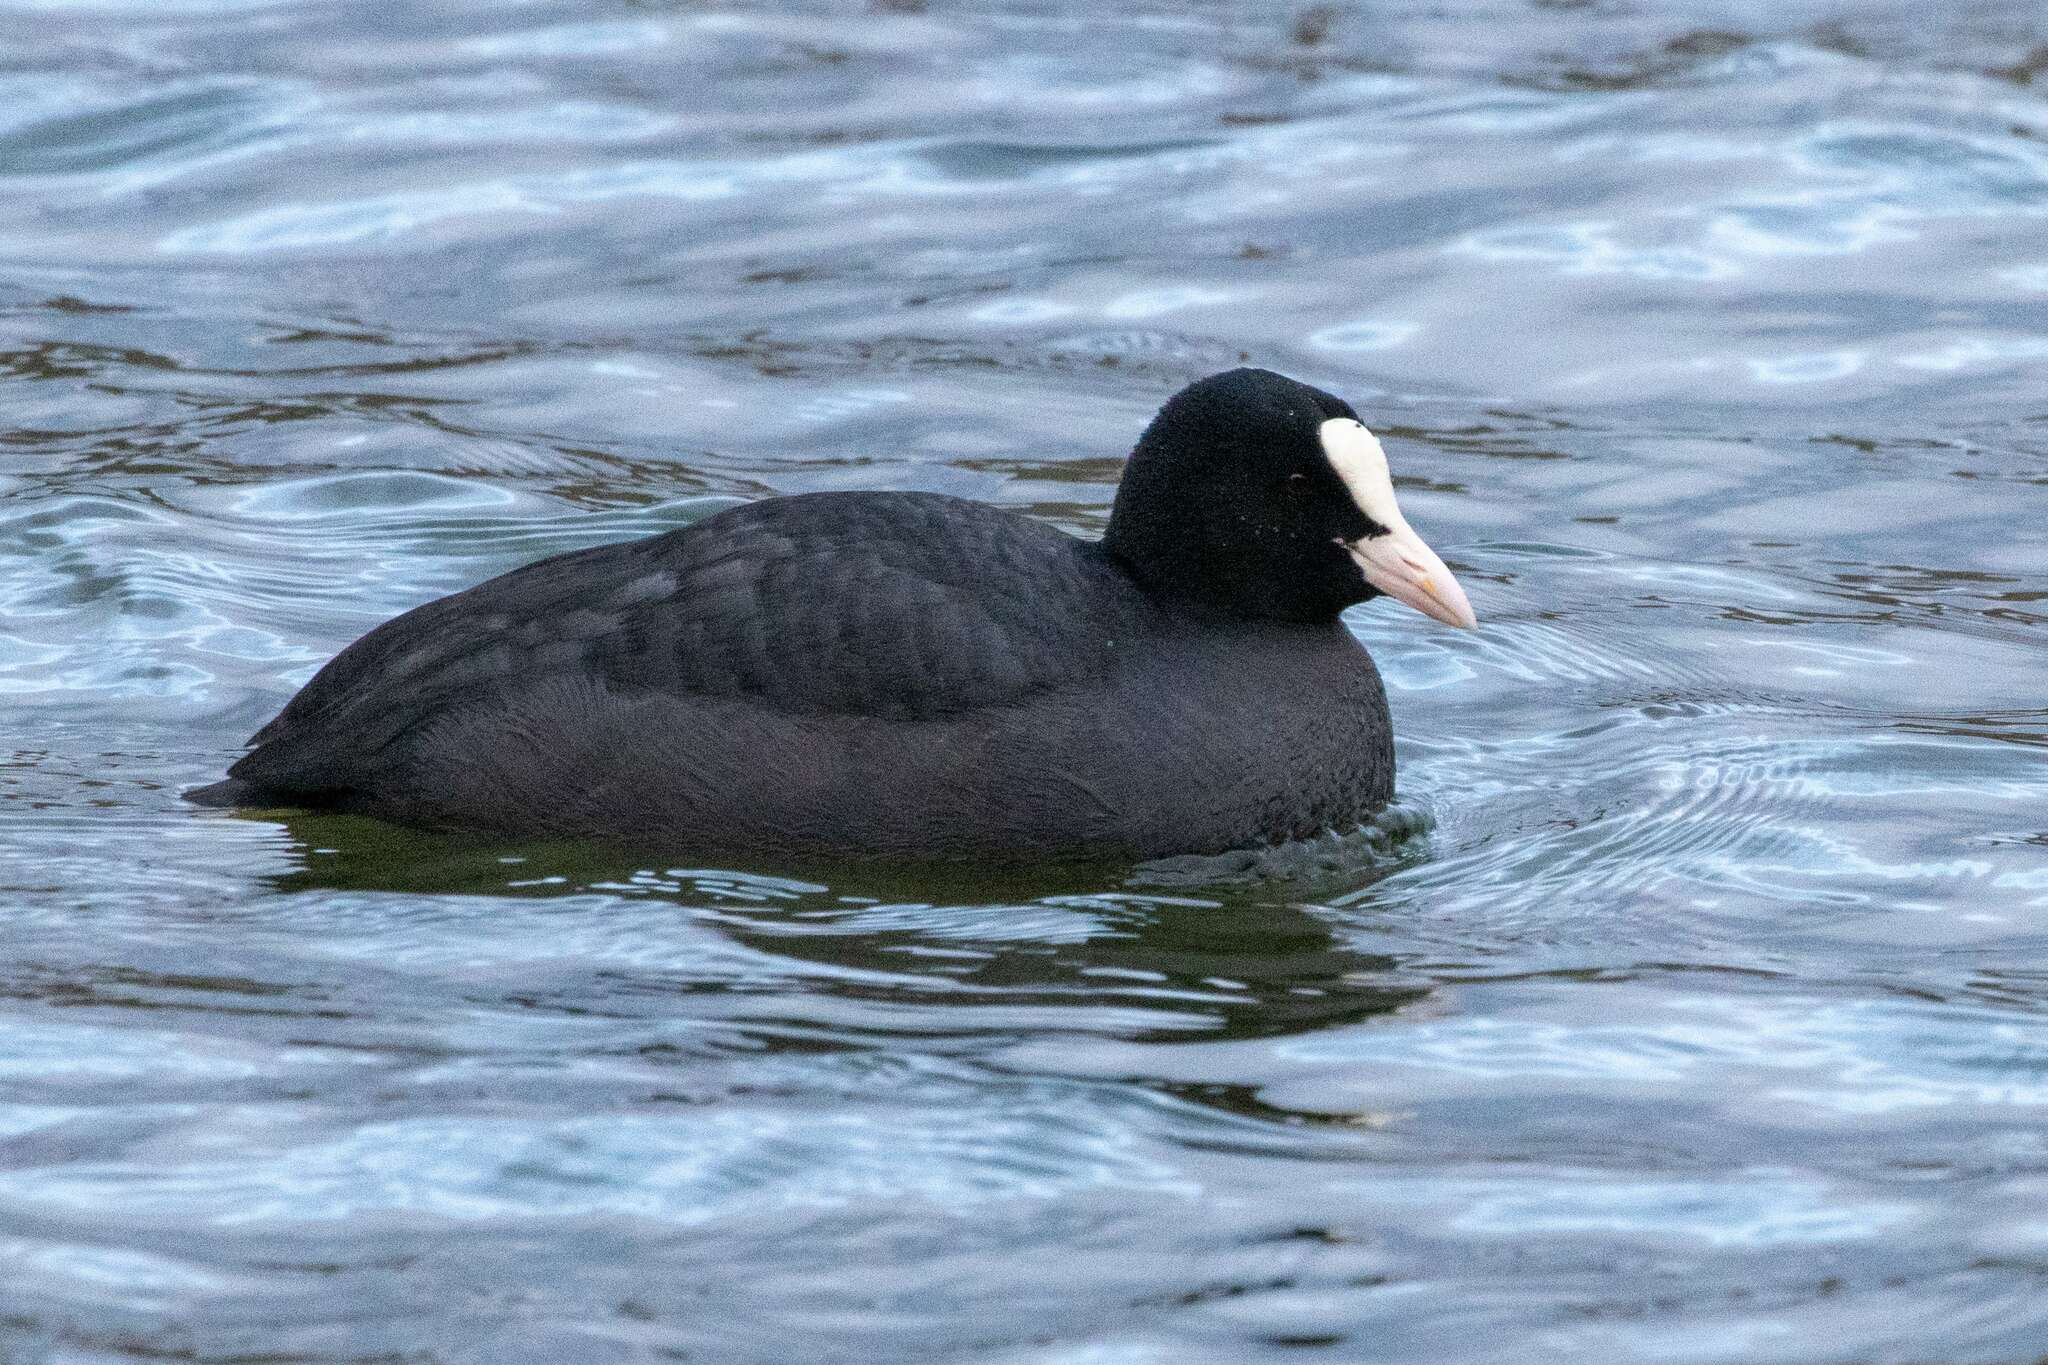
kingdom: Animalia
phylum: Chordata
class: Aves
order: Gruiformes
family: Rallidae
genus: Fulica
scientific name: Fulica atra
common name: Eurasian coot
